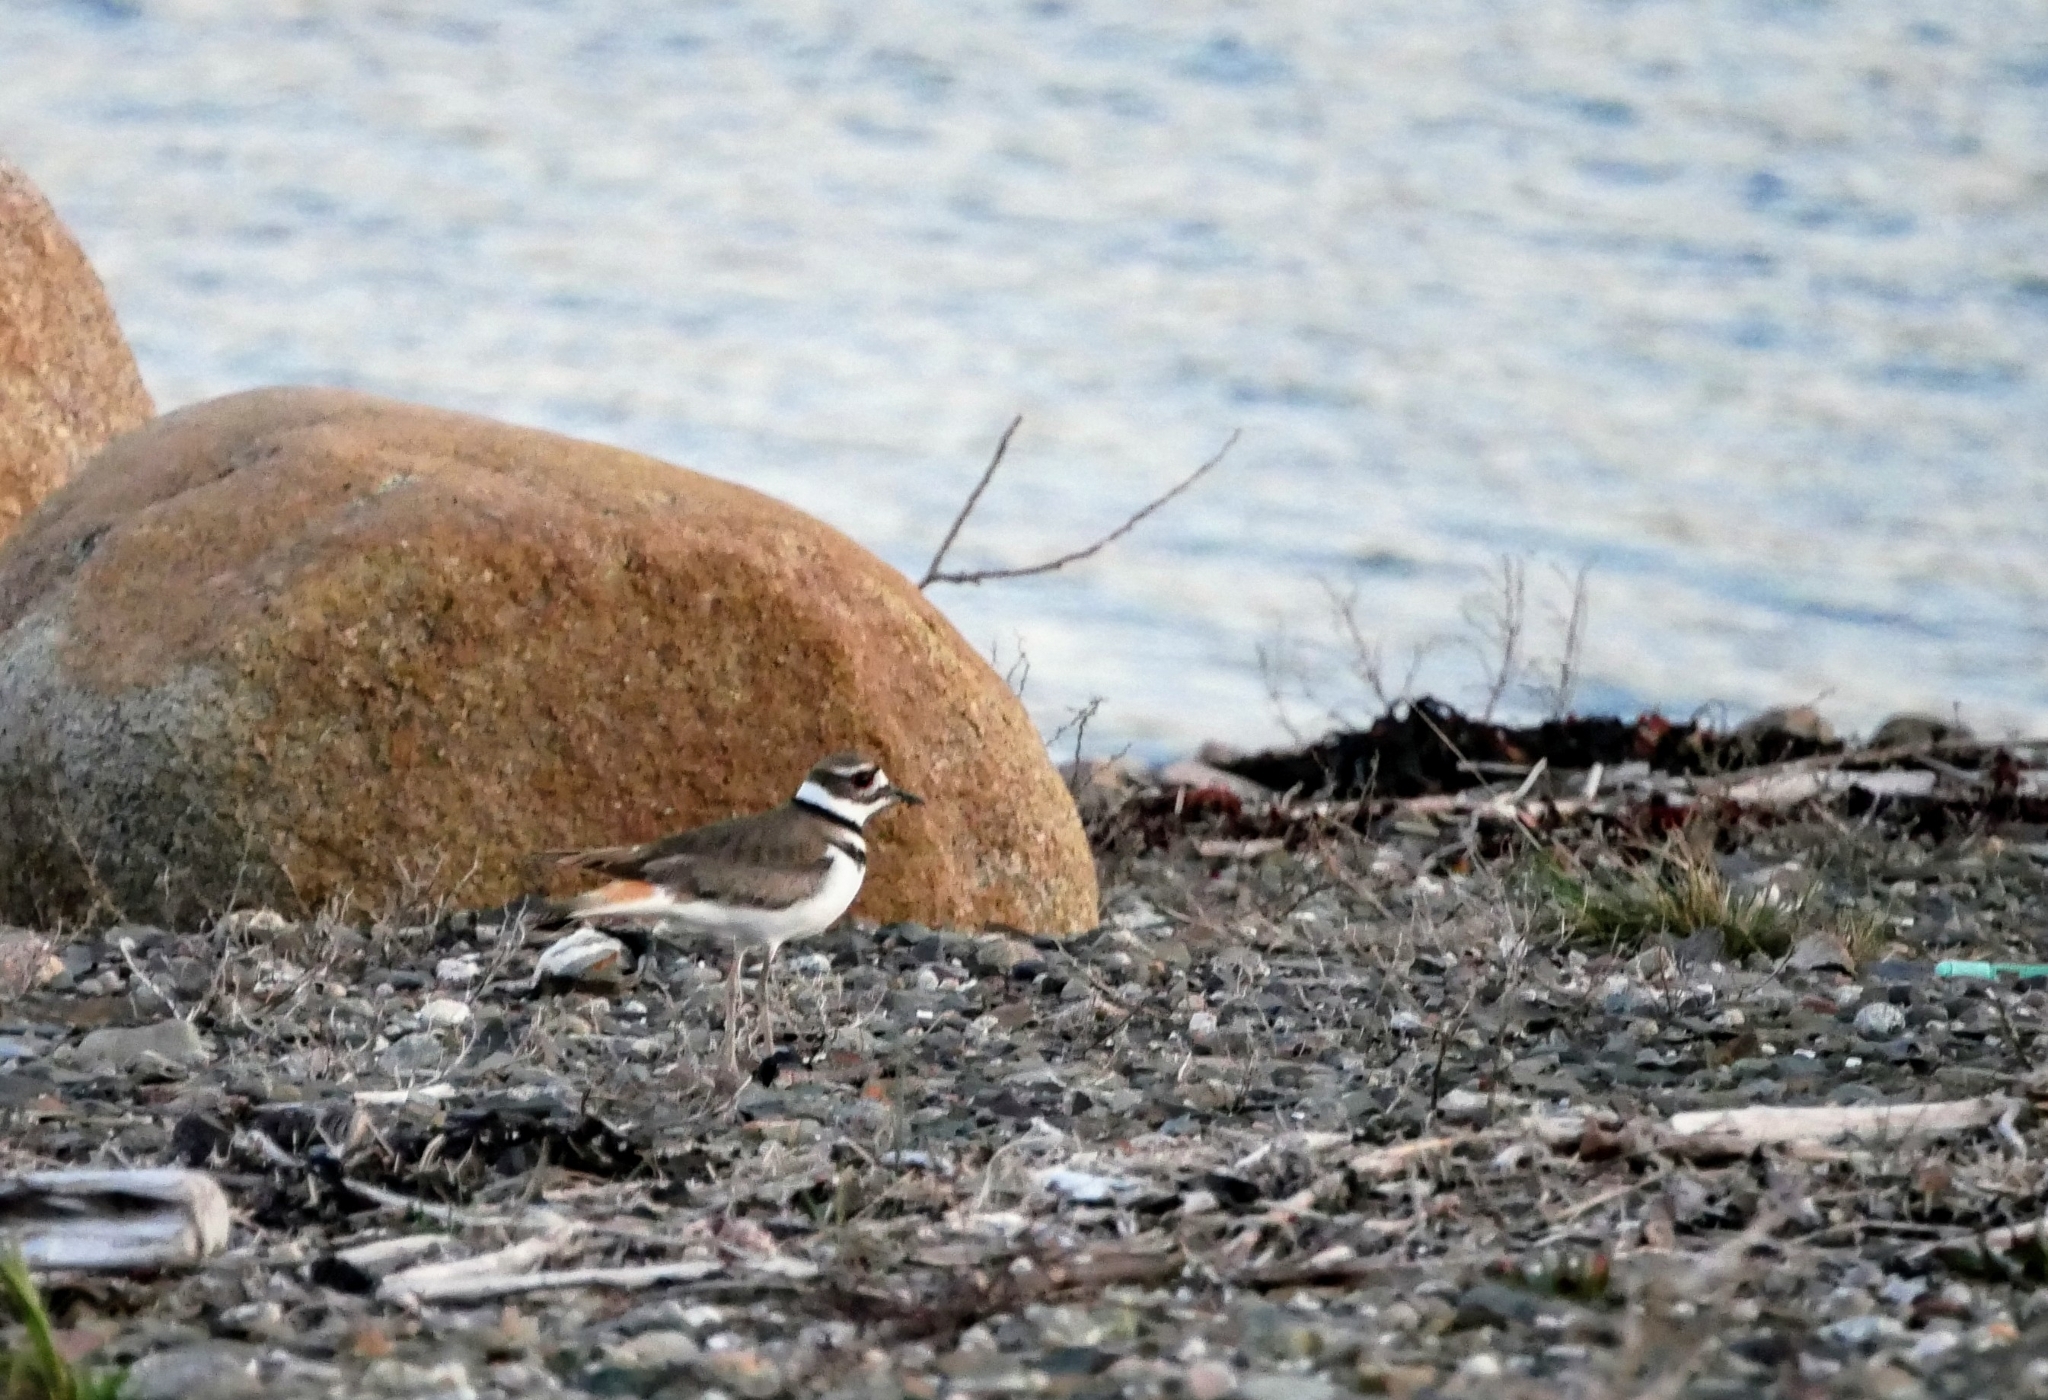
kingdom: Animalia
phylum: Chordata
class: Aves
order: Charadriiformes
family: Charadriidae
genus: Charadrius
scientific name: Charadrius vociferus
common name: Killdeer
